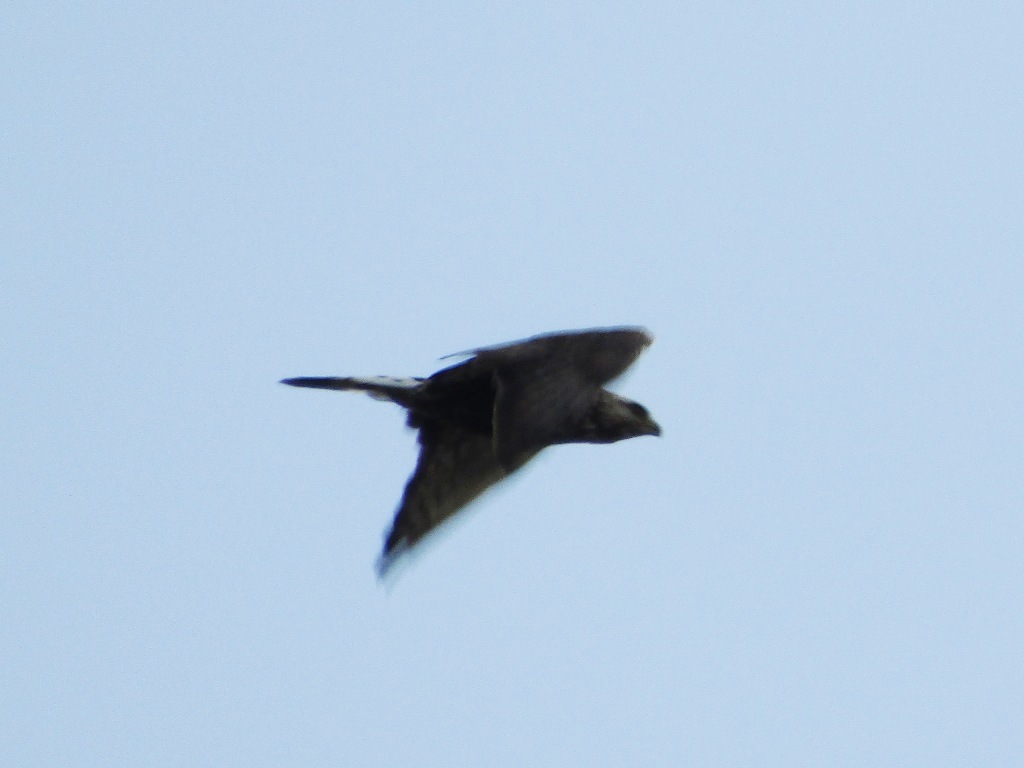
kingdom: Animalia
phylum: Chordata
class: Aves
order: Accipitriformes
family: Accipitridae
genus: Buteo
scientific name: Buteo lagopus
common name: Rough-legged buzzard
